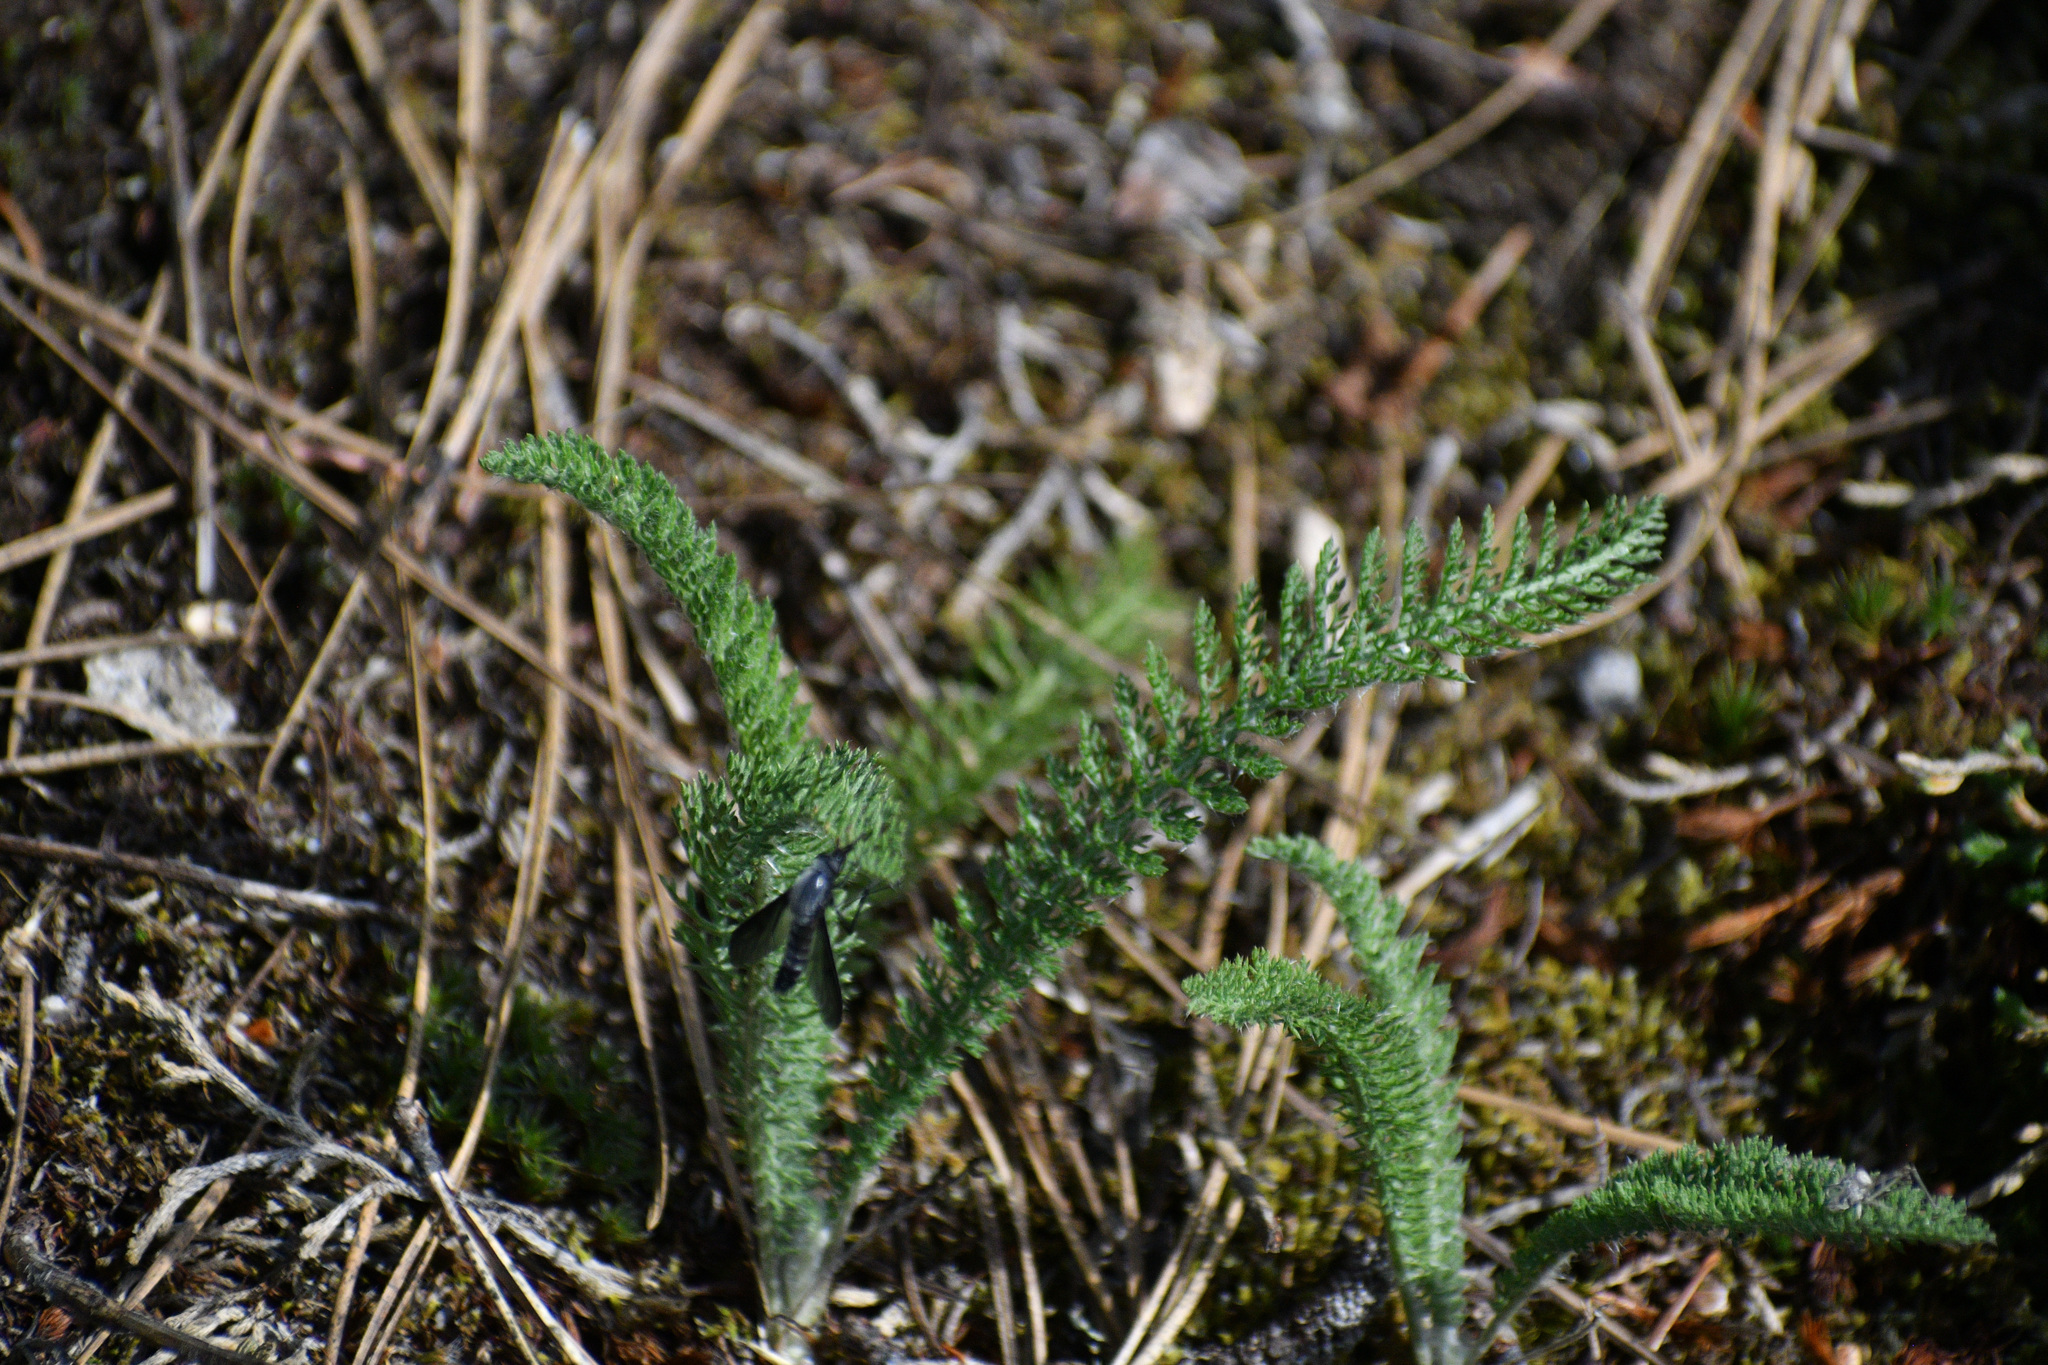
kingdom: Plantae
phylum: Tracheophyta
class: Magnoliopsida
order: Asterales
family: Asteraceae
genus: Achillea
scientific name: Achillea millefolium
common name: Yarrow
